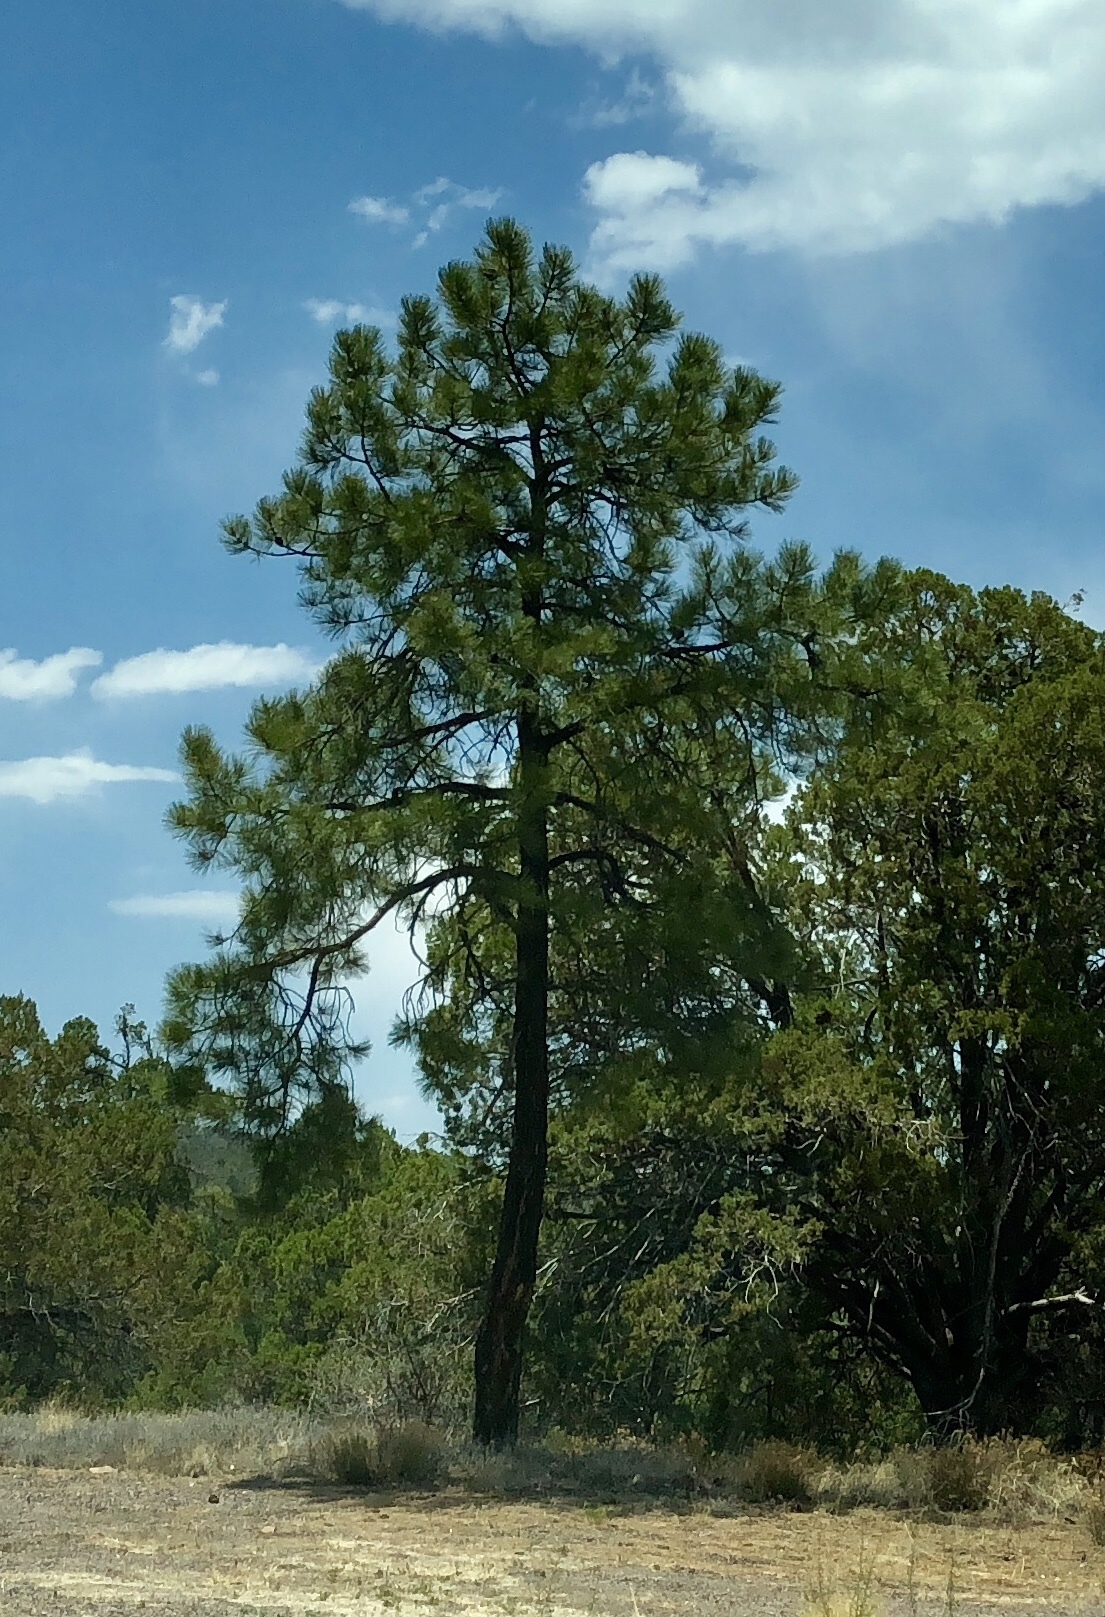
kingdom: Plantae
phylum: Tracheophyta
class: Pinopsida
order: Pinales
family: Pinaceae
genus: Pinus
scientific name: Pinus ponderosa
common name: Western yellow-pine
